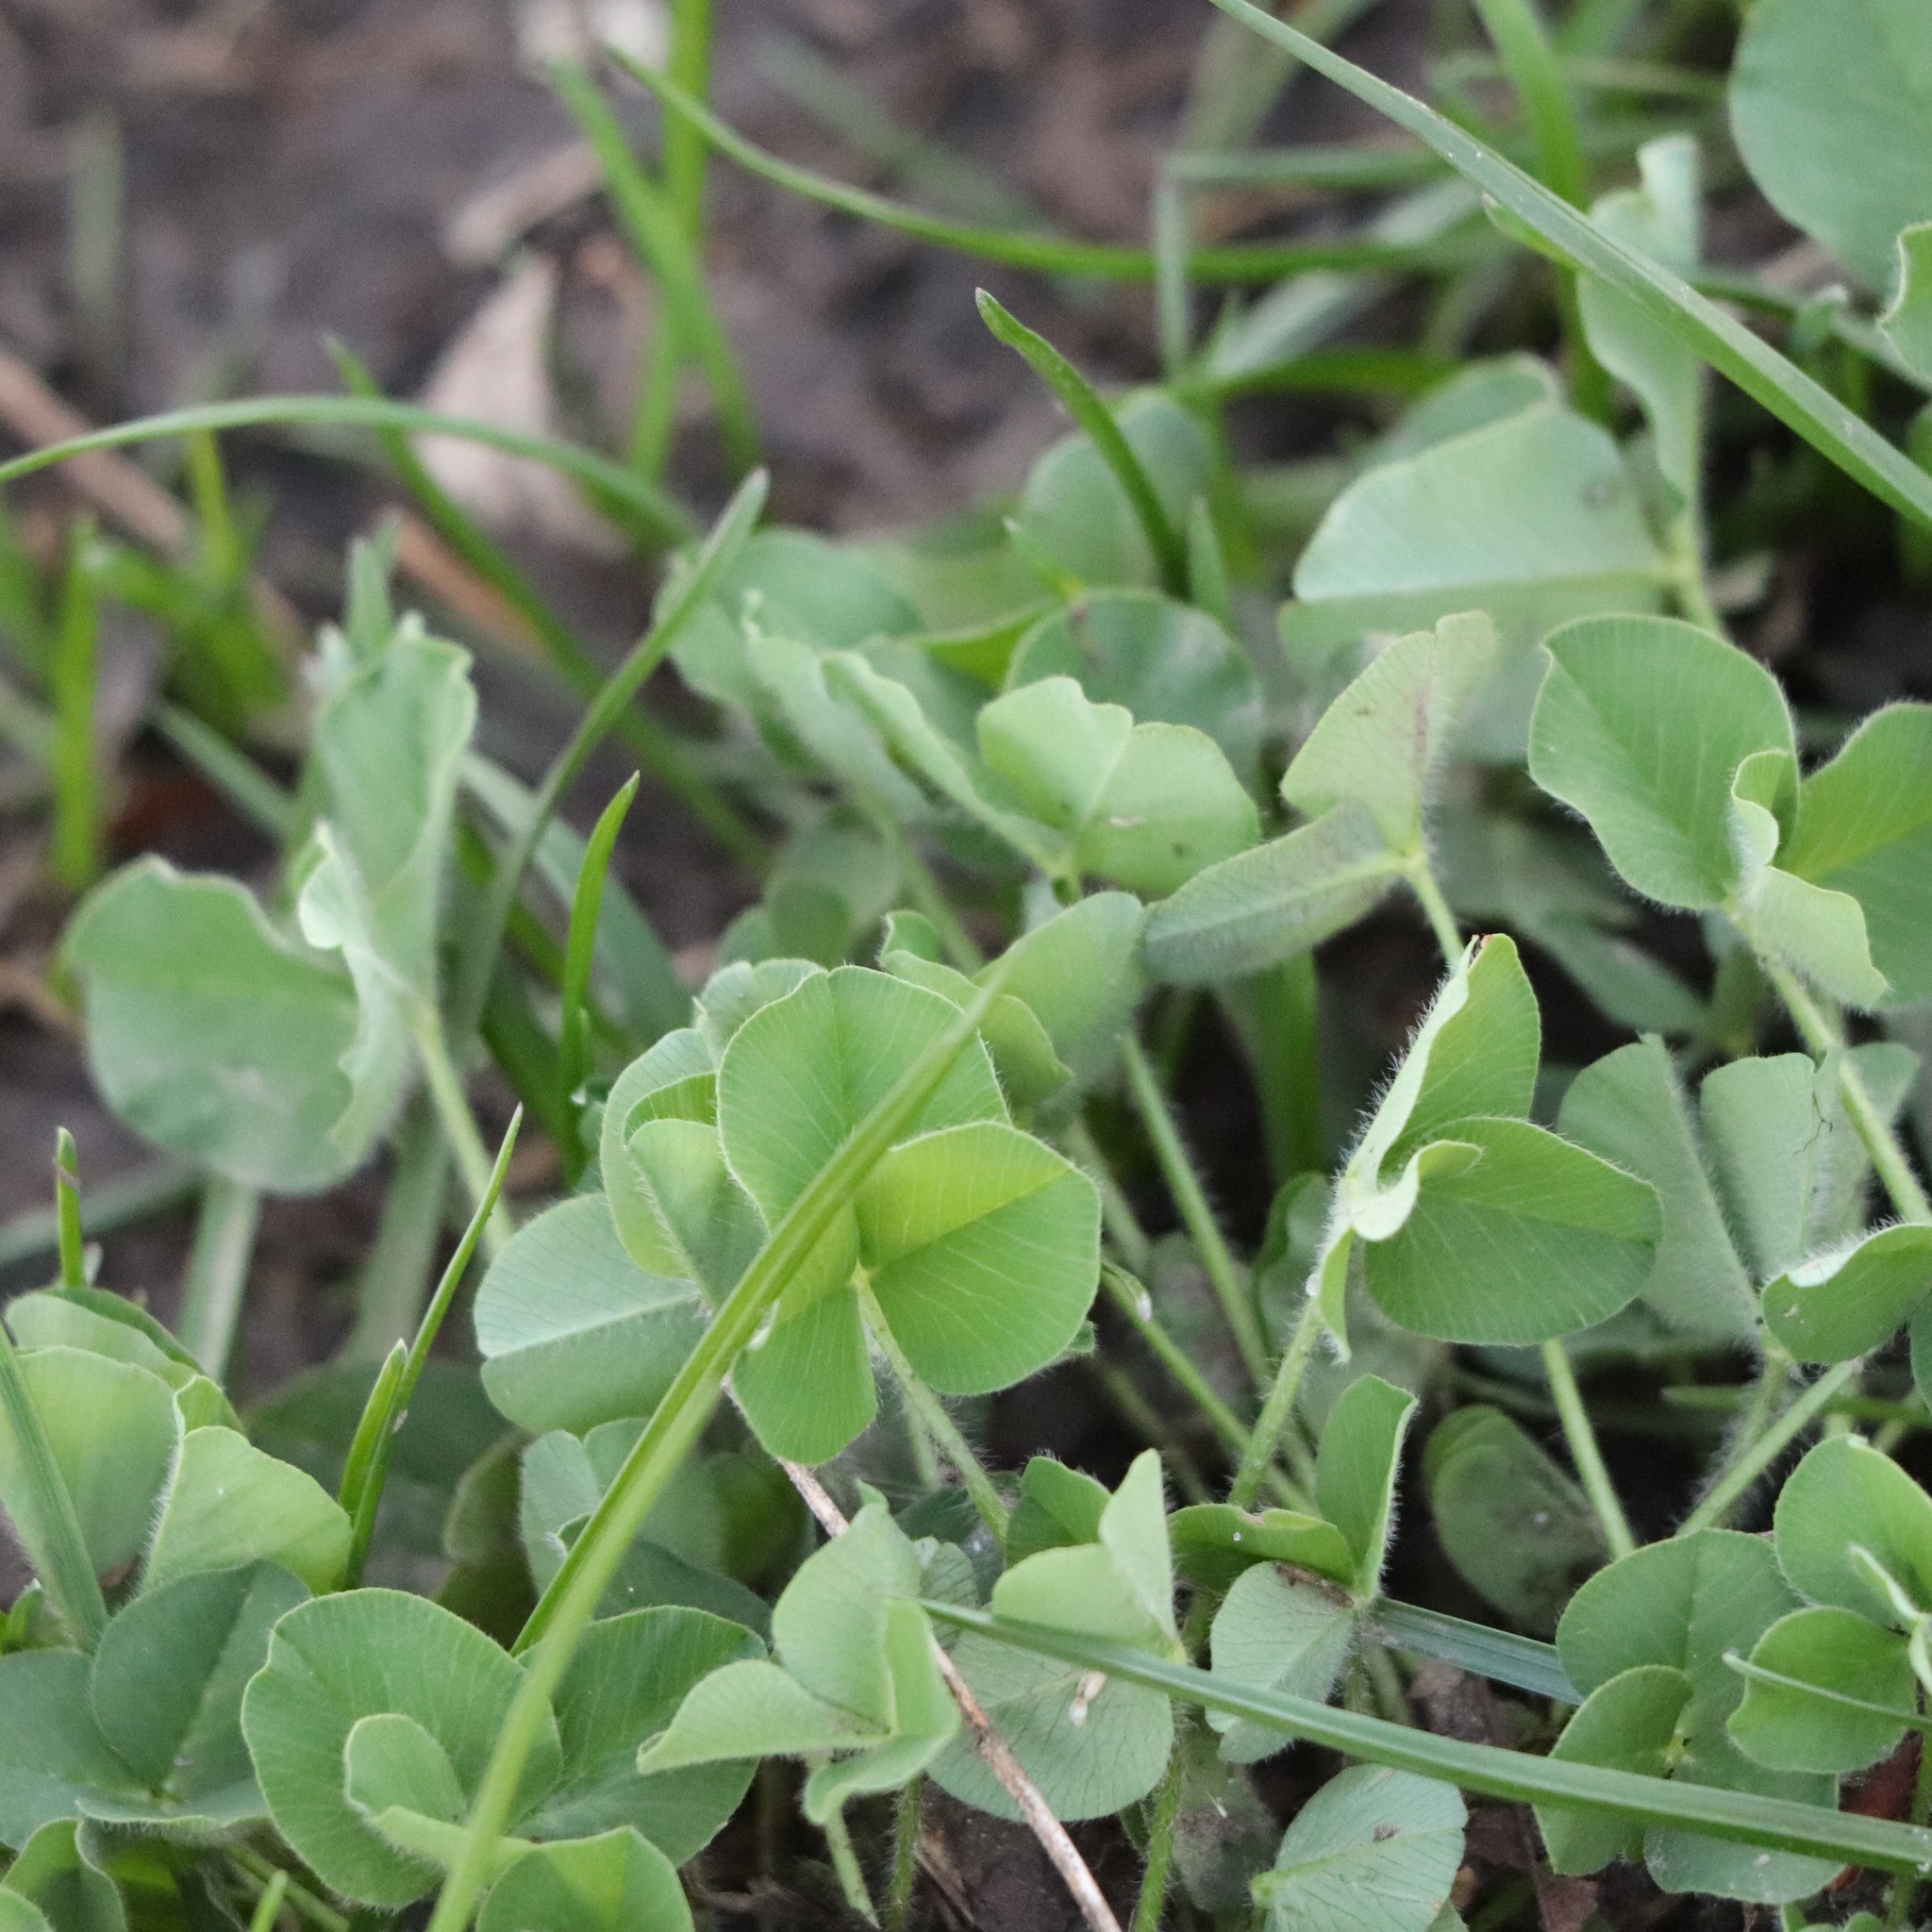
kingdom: Plantae
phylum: Tracheophyta
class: Magnoliopsida
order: Fabales
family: Fabaceae
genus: Trifolium
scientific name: Trifolium pratense
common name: Red clover
